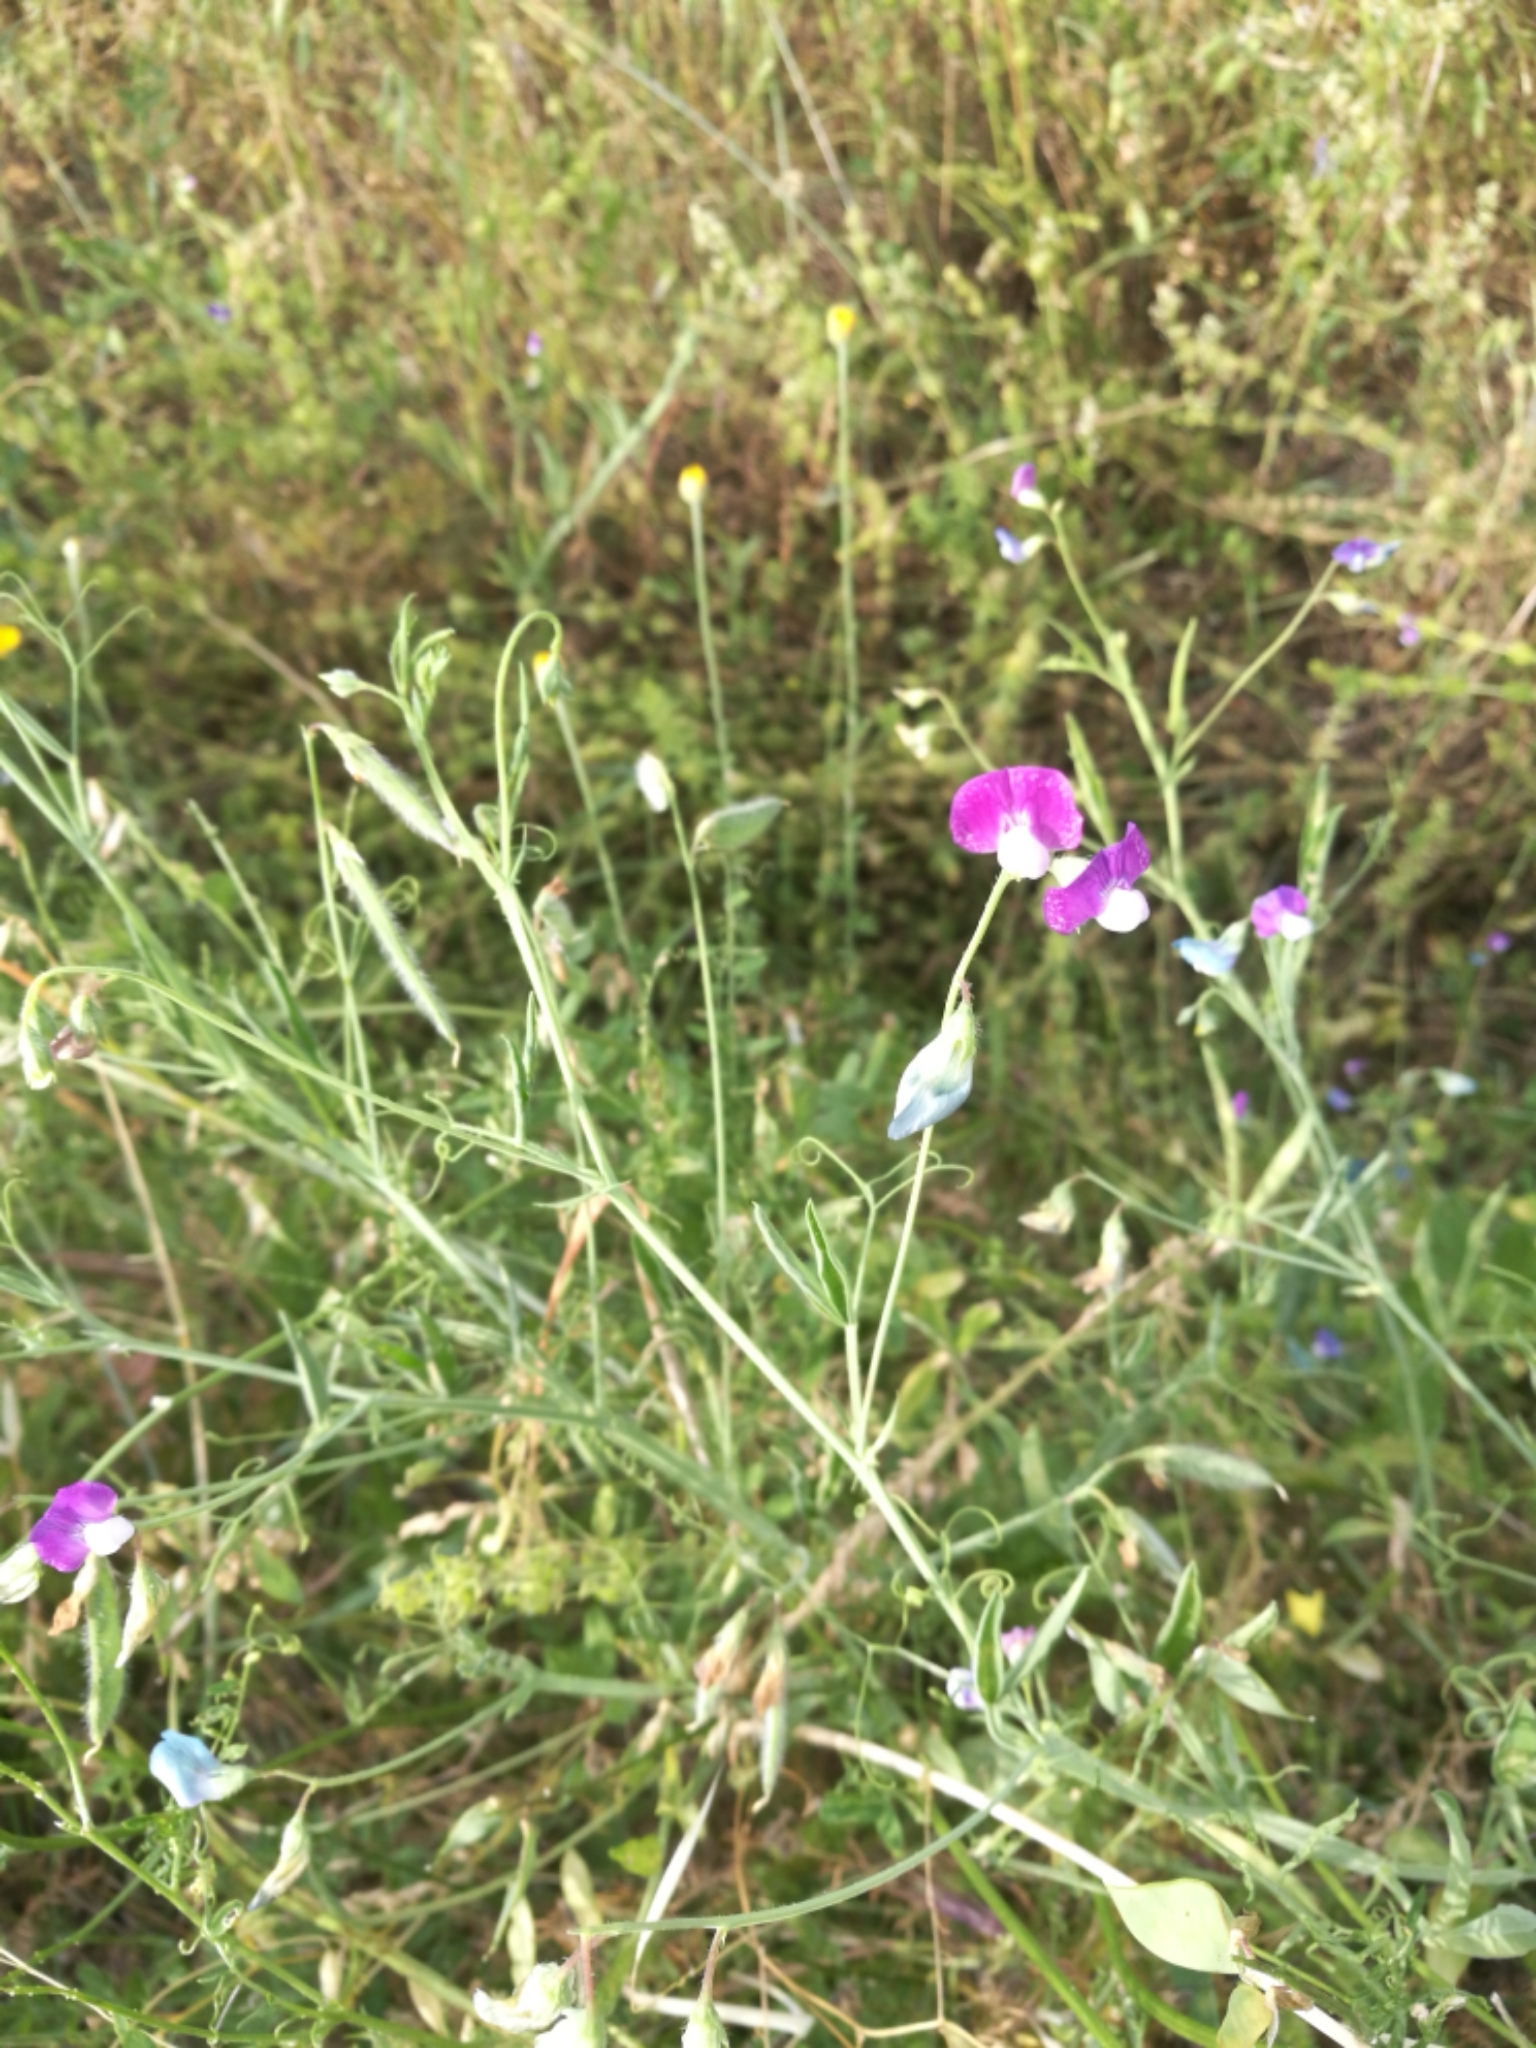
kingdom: Plantae
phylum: Tracheophyta
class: Magnoliopsida
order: Fabales
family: Fabaceae
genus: Lathyrus
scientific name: Lathyrus hirsutus
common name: Hairy vetchling
